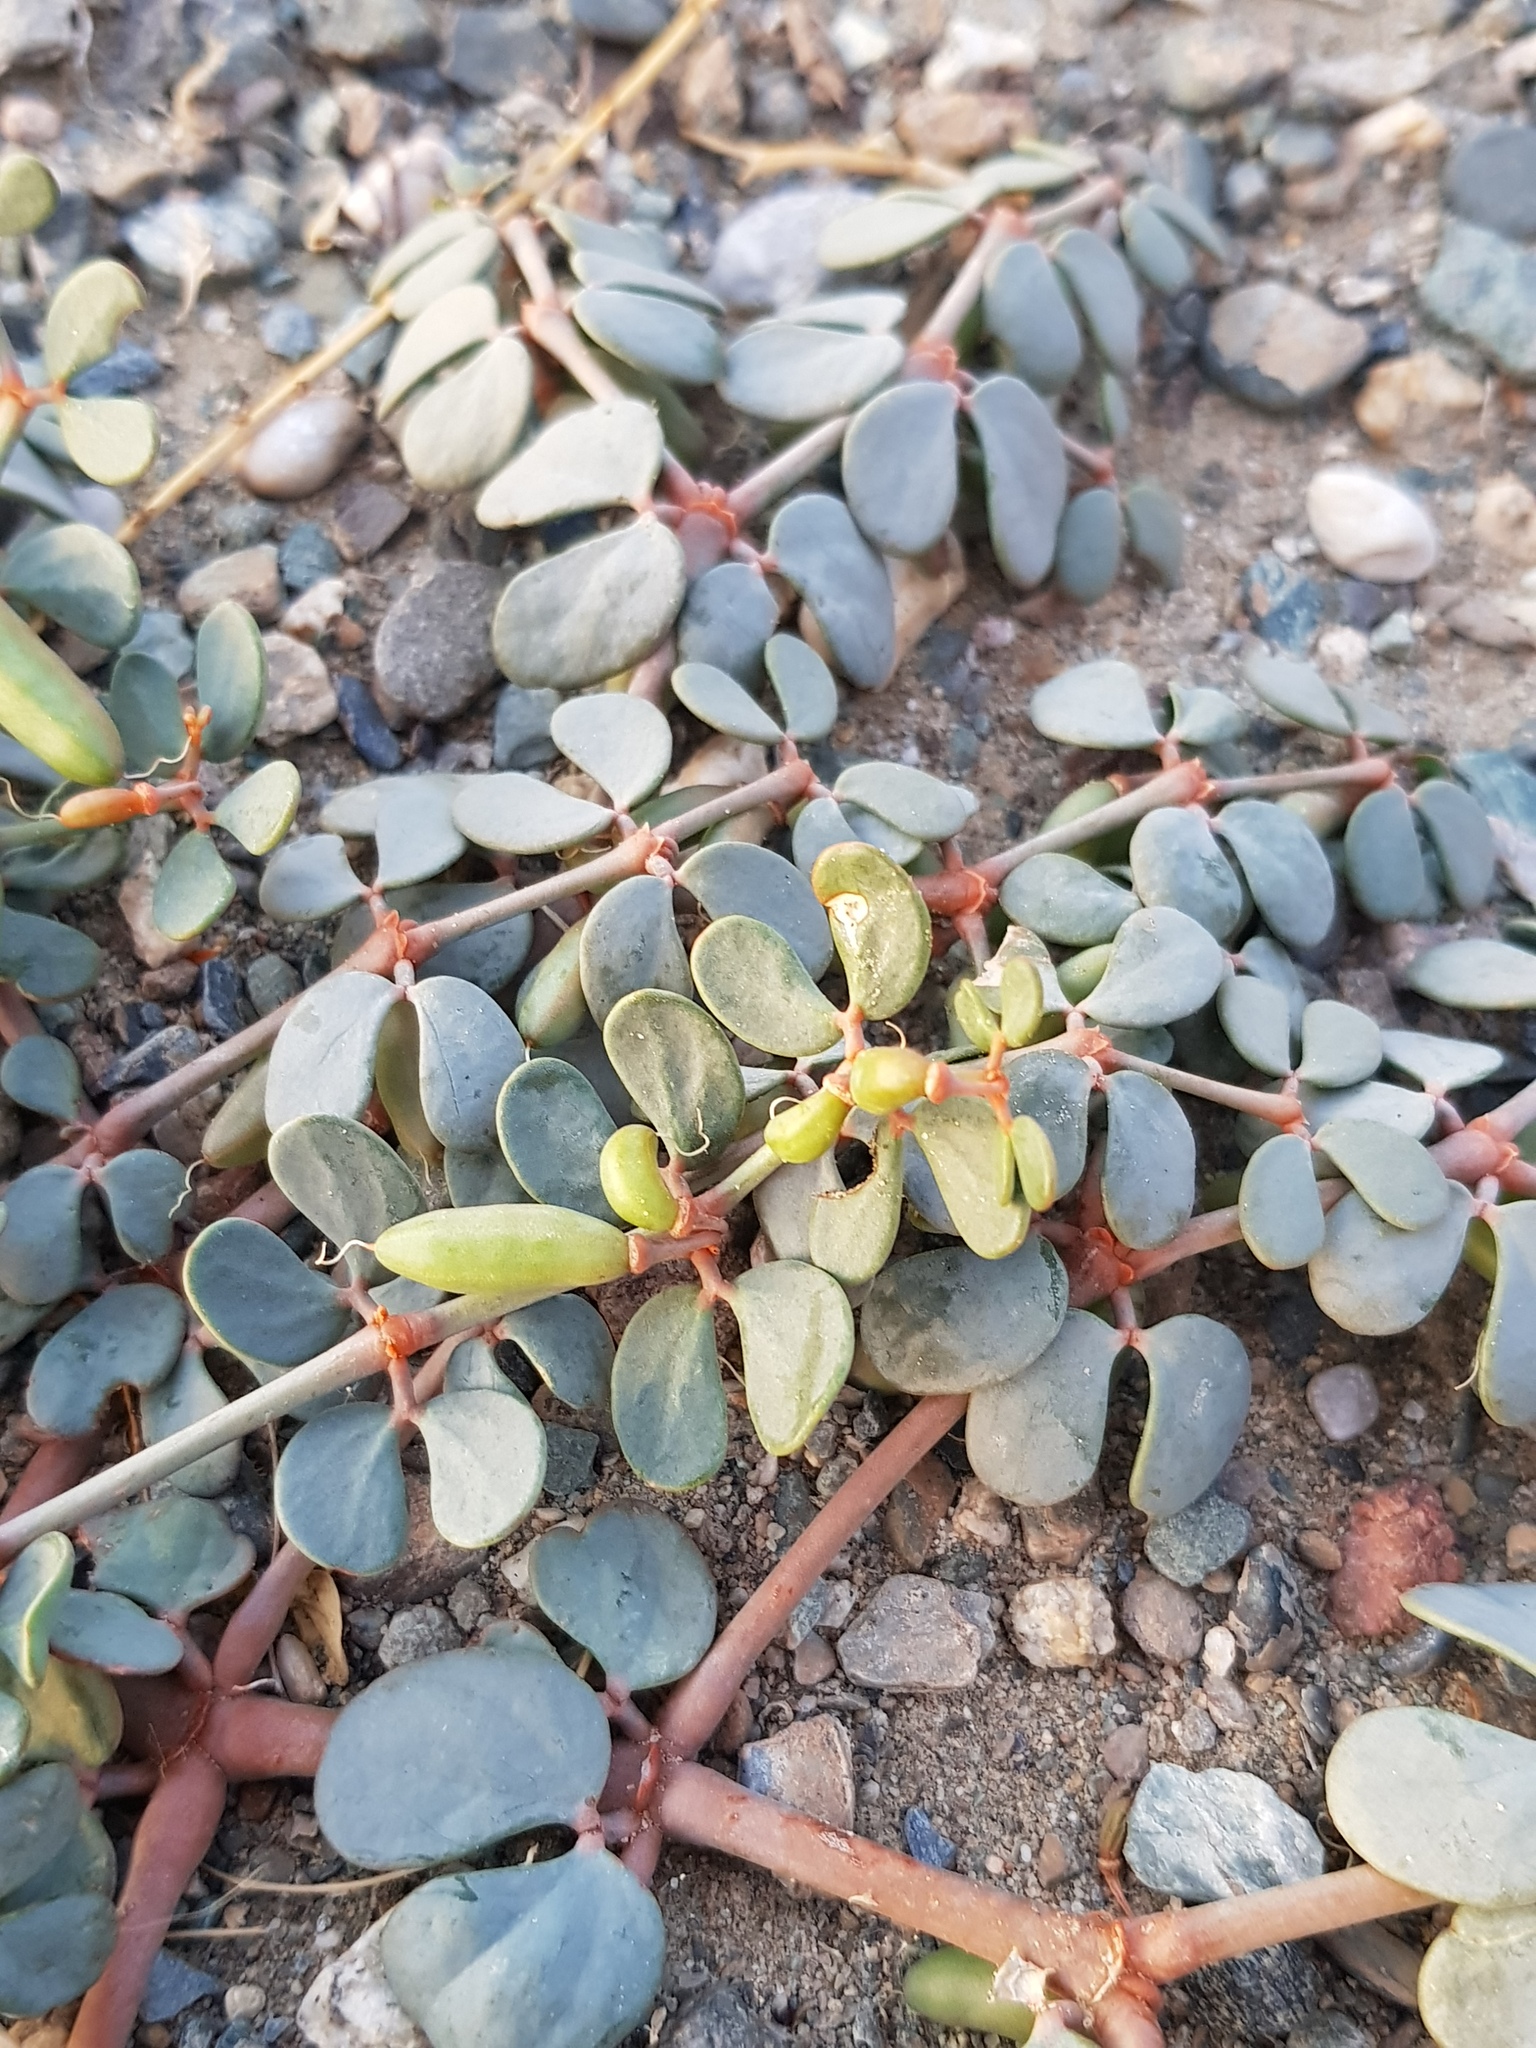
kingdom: Plantae
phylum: Tracheophyta
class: Magnoliopsida
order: Zygophyllales
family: Zygophyllaceae
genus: Zygophyllum
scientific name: Zygophyllum gobicum
